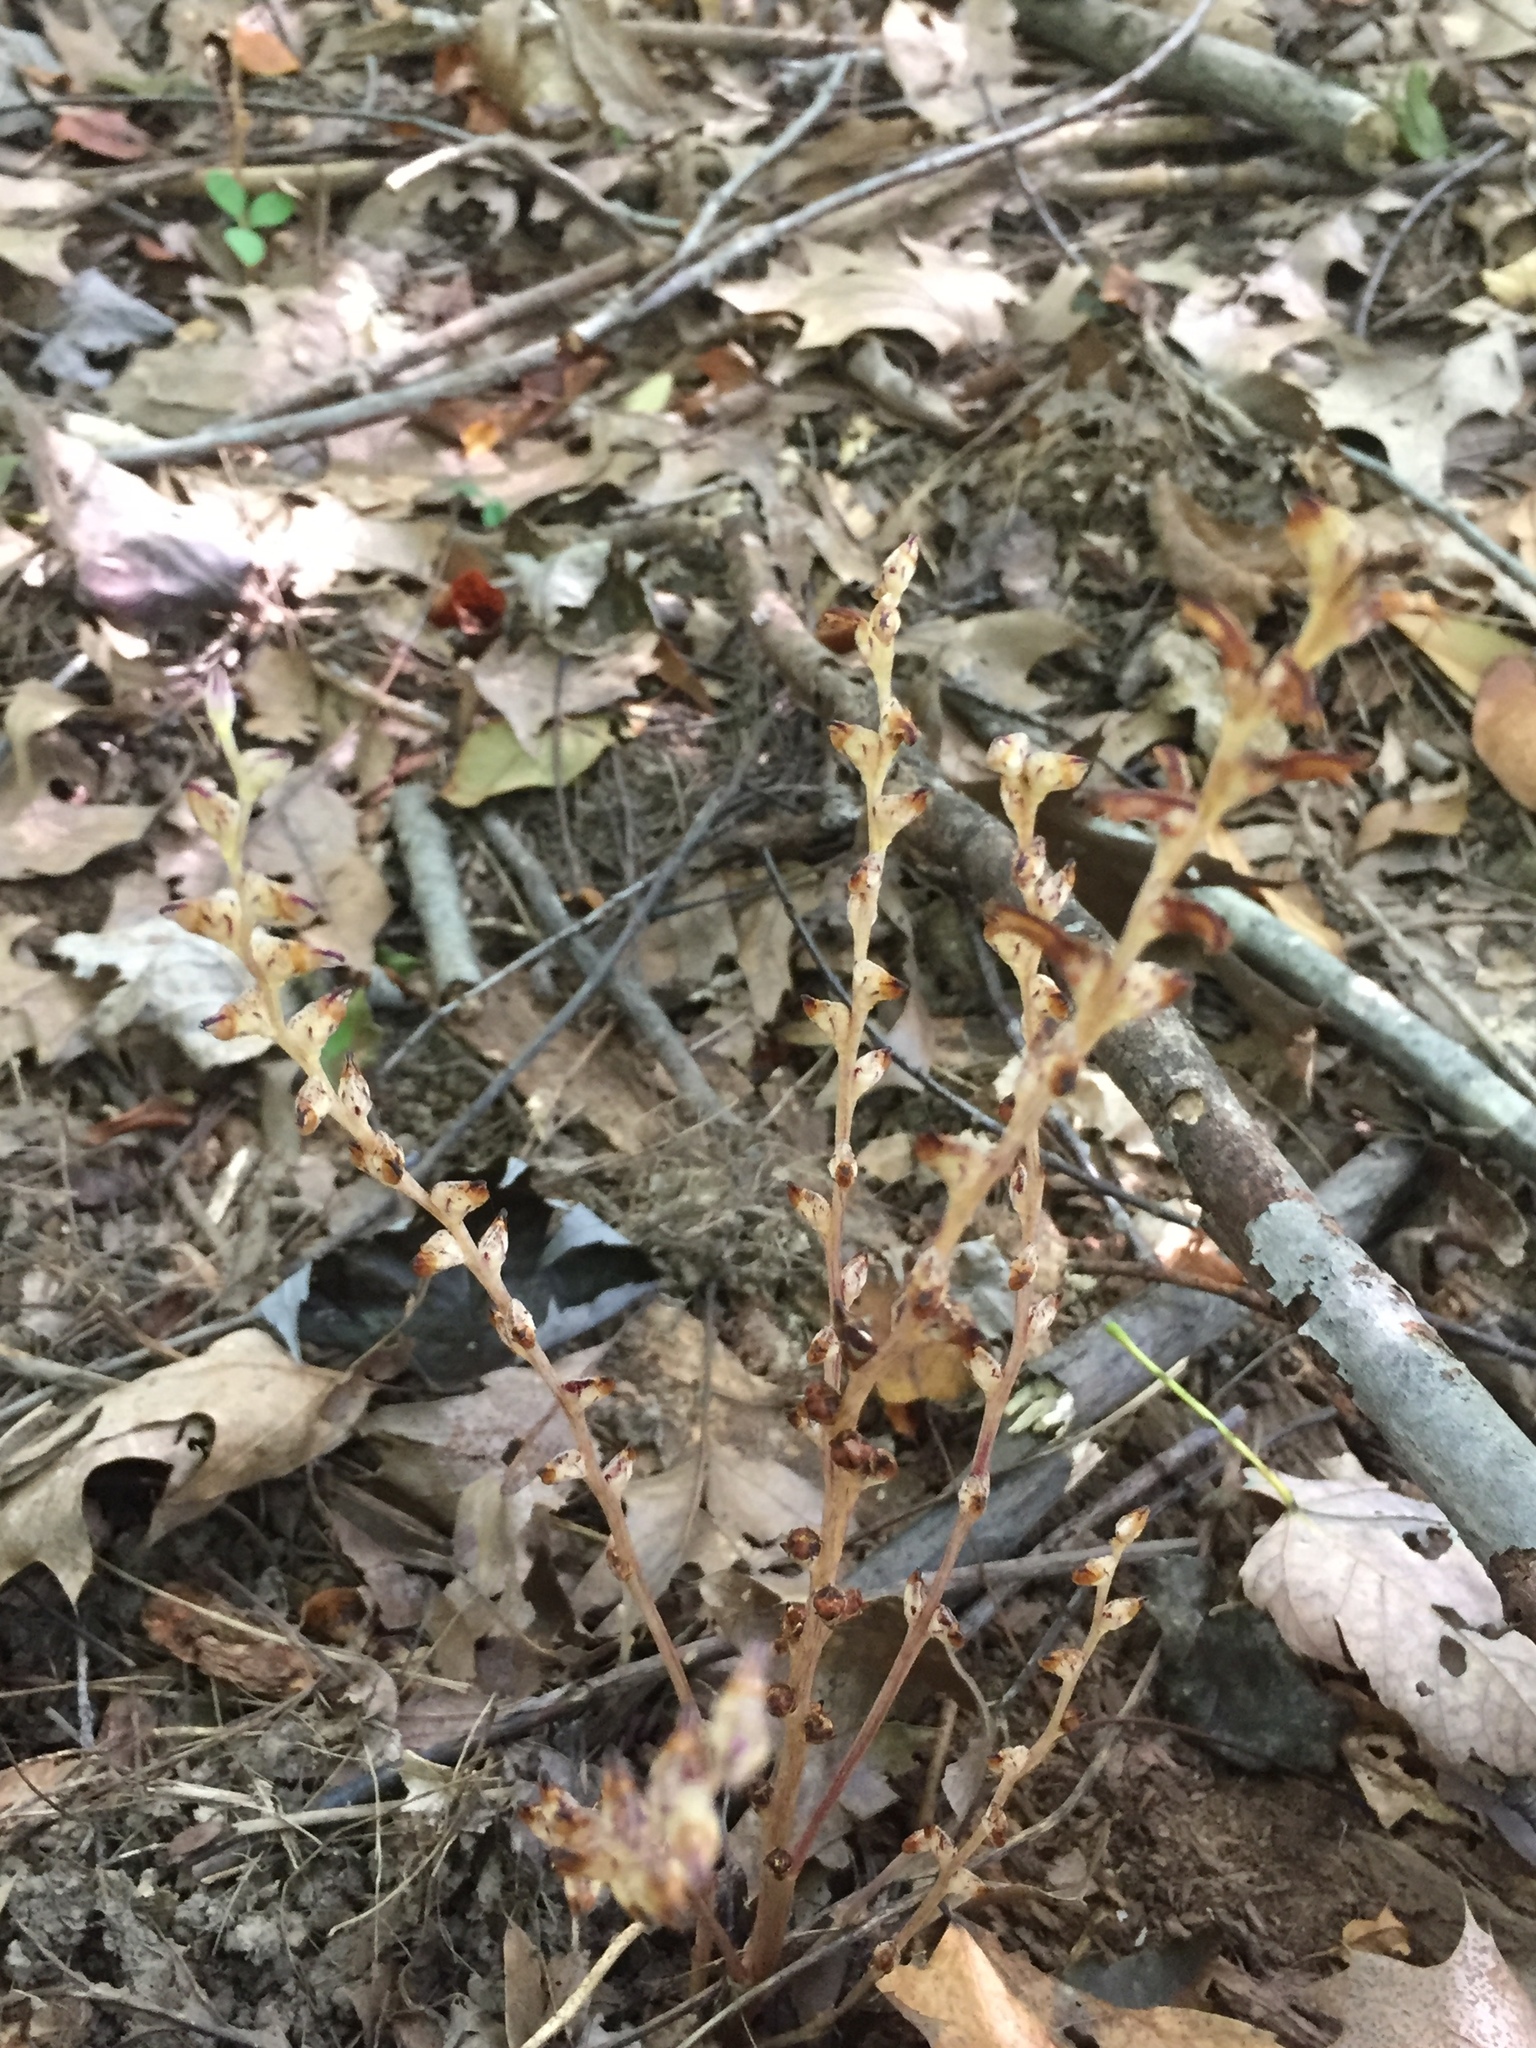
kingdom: Plantae
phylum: Tracheophyta
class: Magnoliopsida
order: Lamiales
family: Orobanchaceae
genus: Epifagus
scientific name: Epifagus virginiana
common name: Beechdrops
